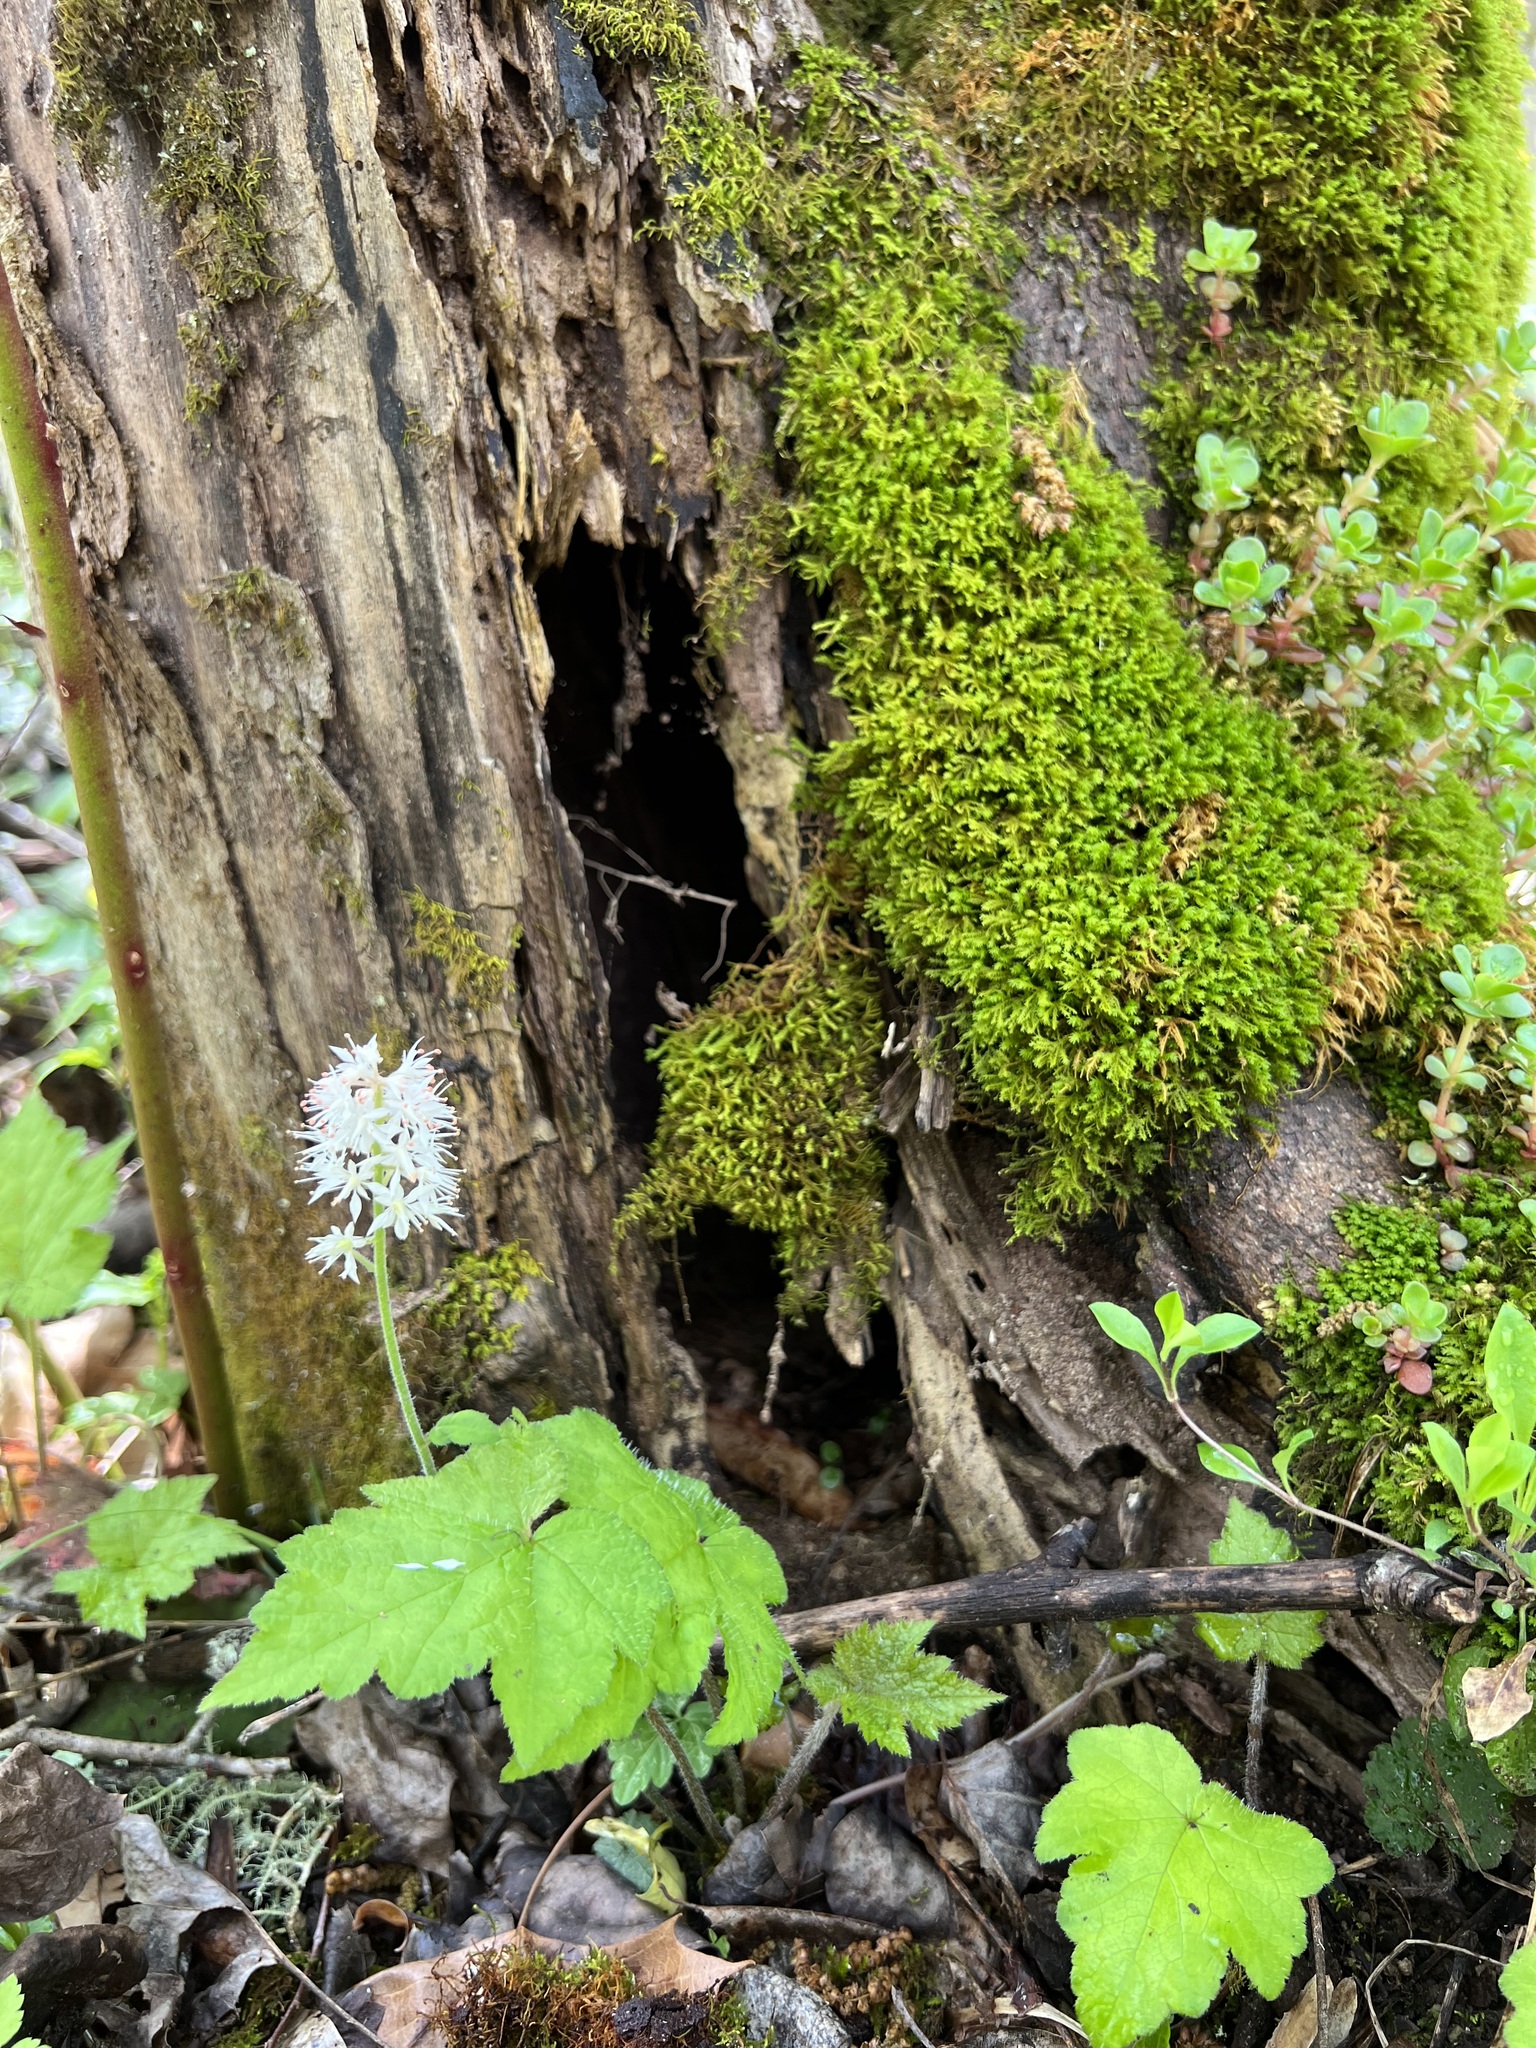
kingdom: Plantae
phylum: Tracheophyta
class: Magnoliopsida
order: Saxifragales
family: Saxifragaceae
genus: Tiarella
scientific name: Tiarella austrina
